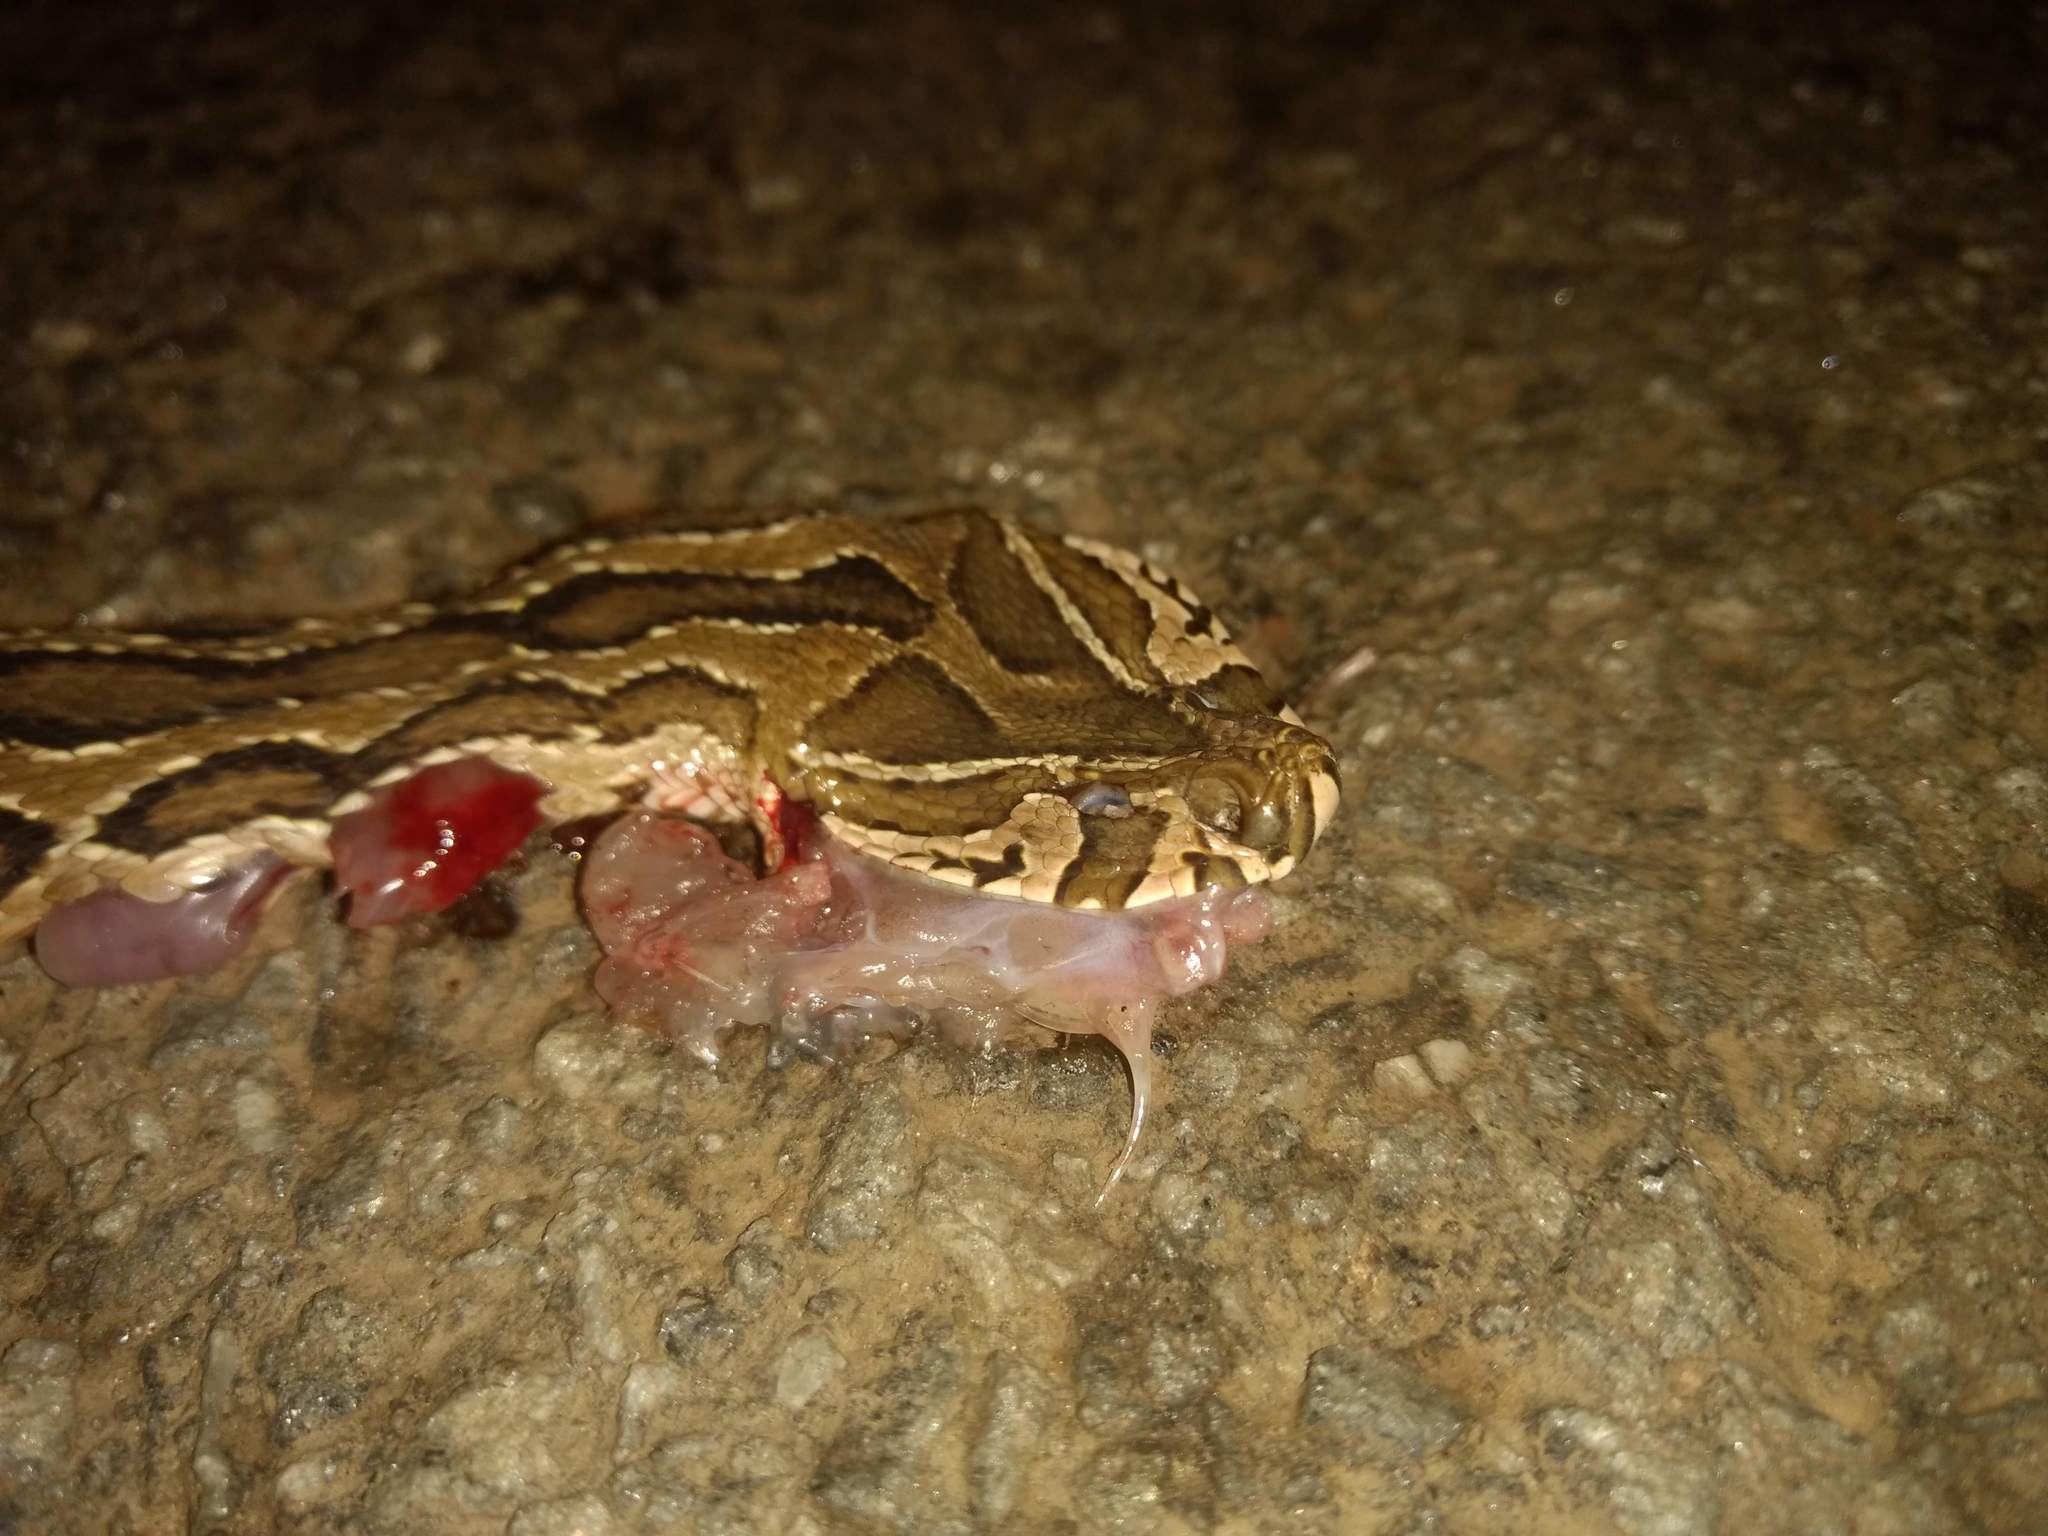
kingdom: Animalia
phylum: Chordata
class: Squamata
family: Viperidae
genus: Daboia
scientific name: Daboia russelii
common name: Western russel’s viper
